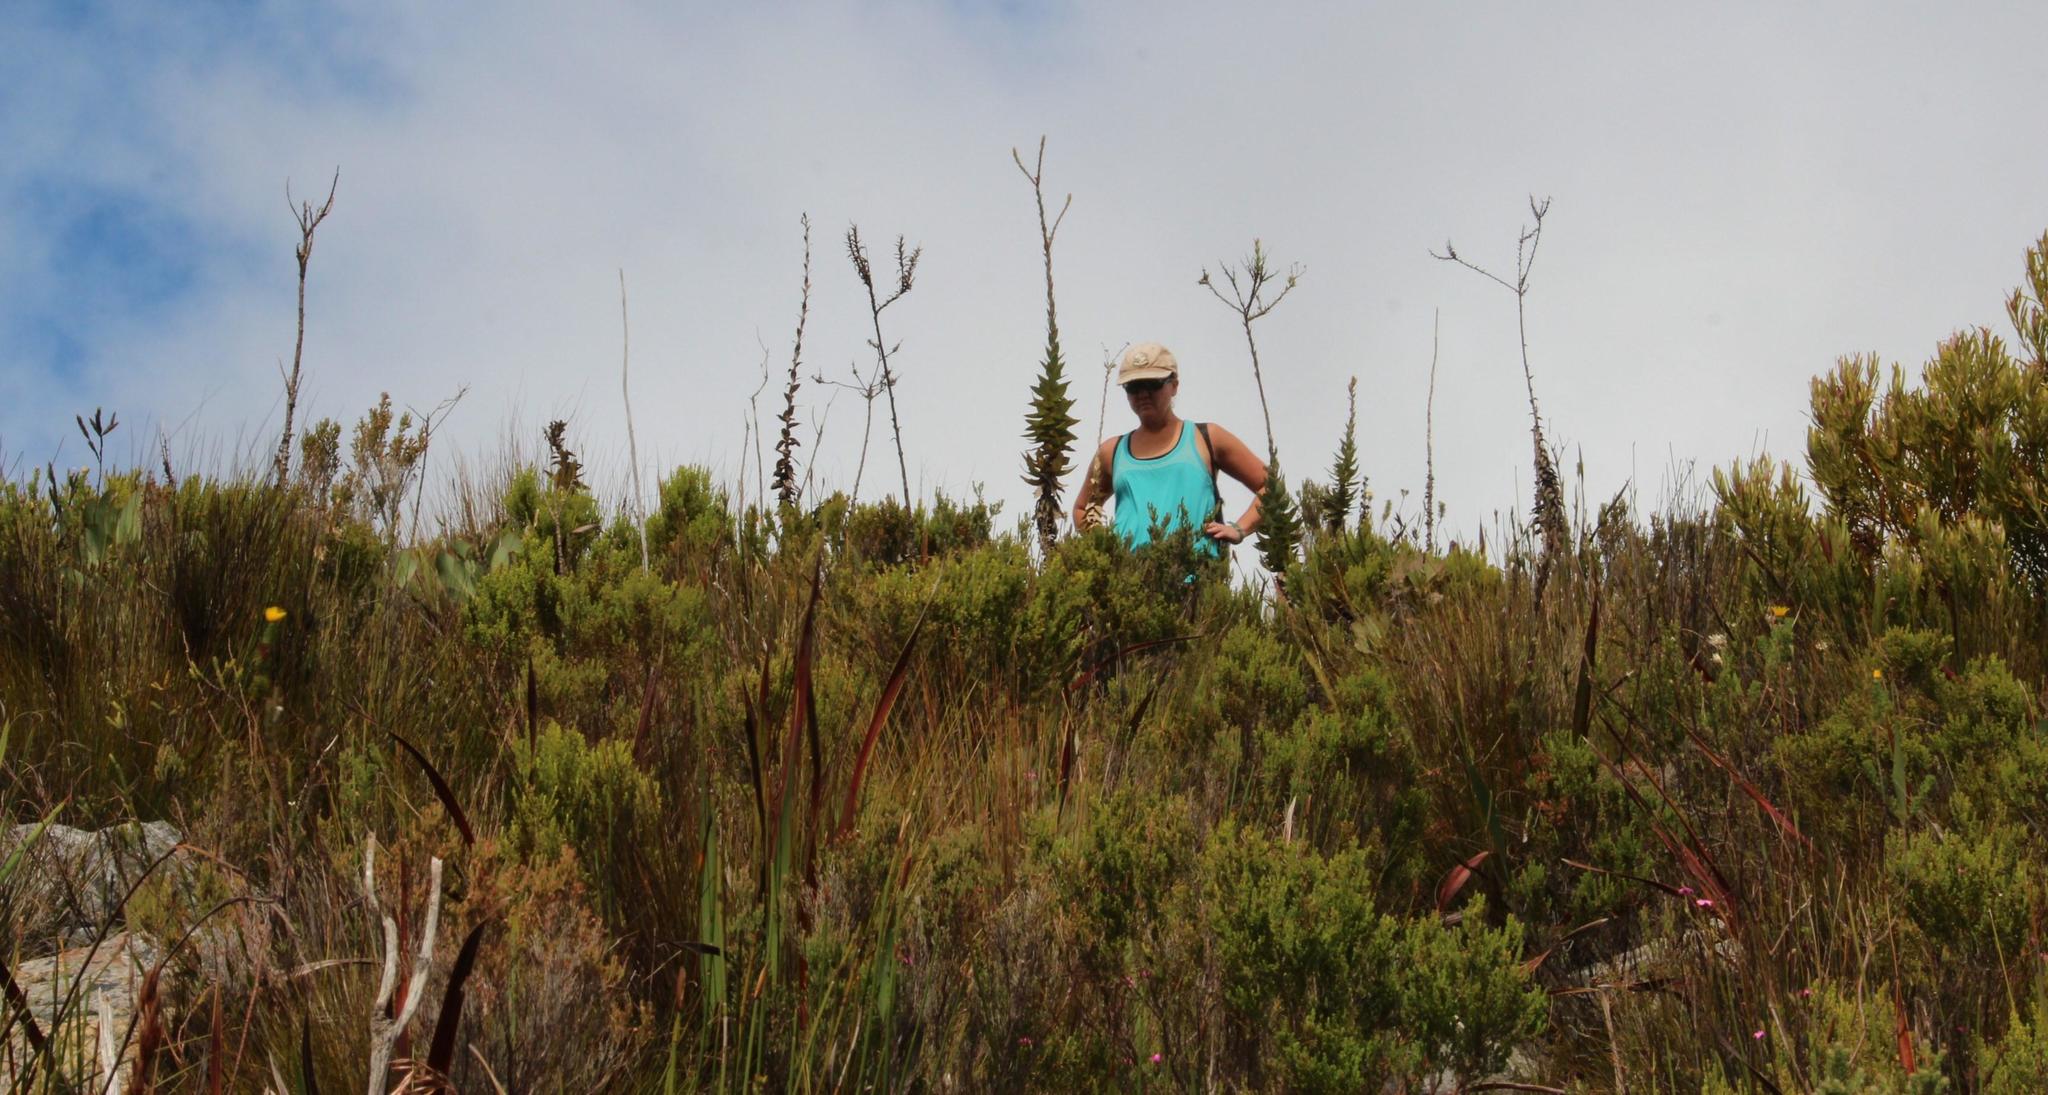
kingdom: Plantae
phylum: Tracheophyta
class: Magnoliopsida
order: Asterales
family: Asteraceae
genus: Osteospermum
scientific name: Osteospermum polygaloides
